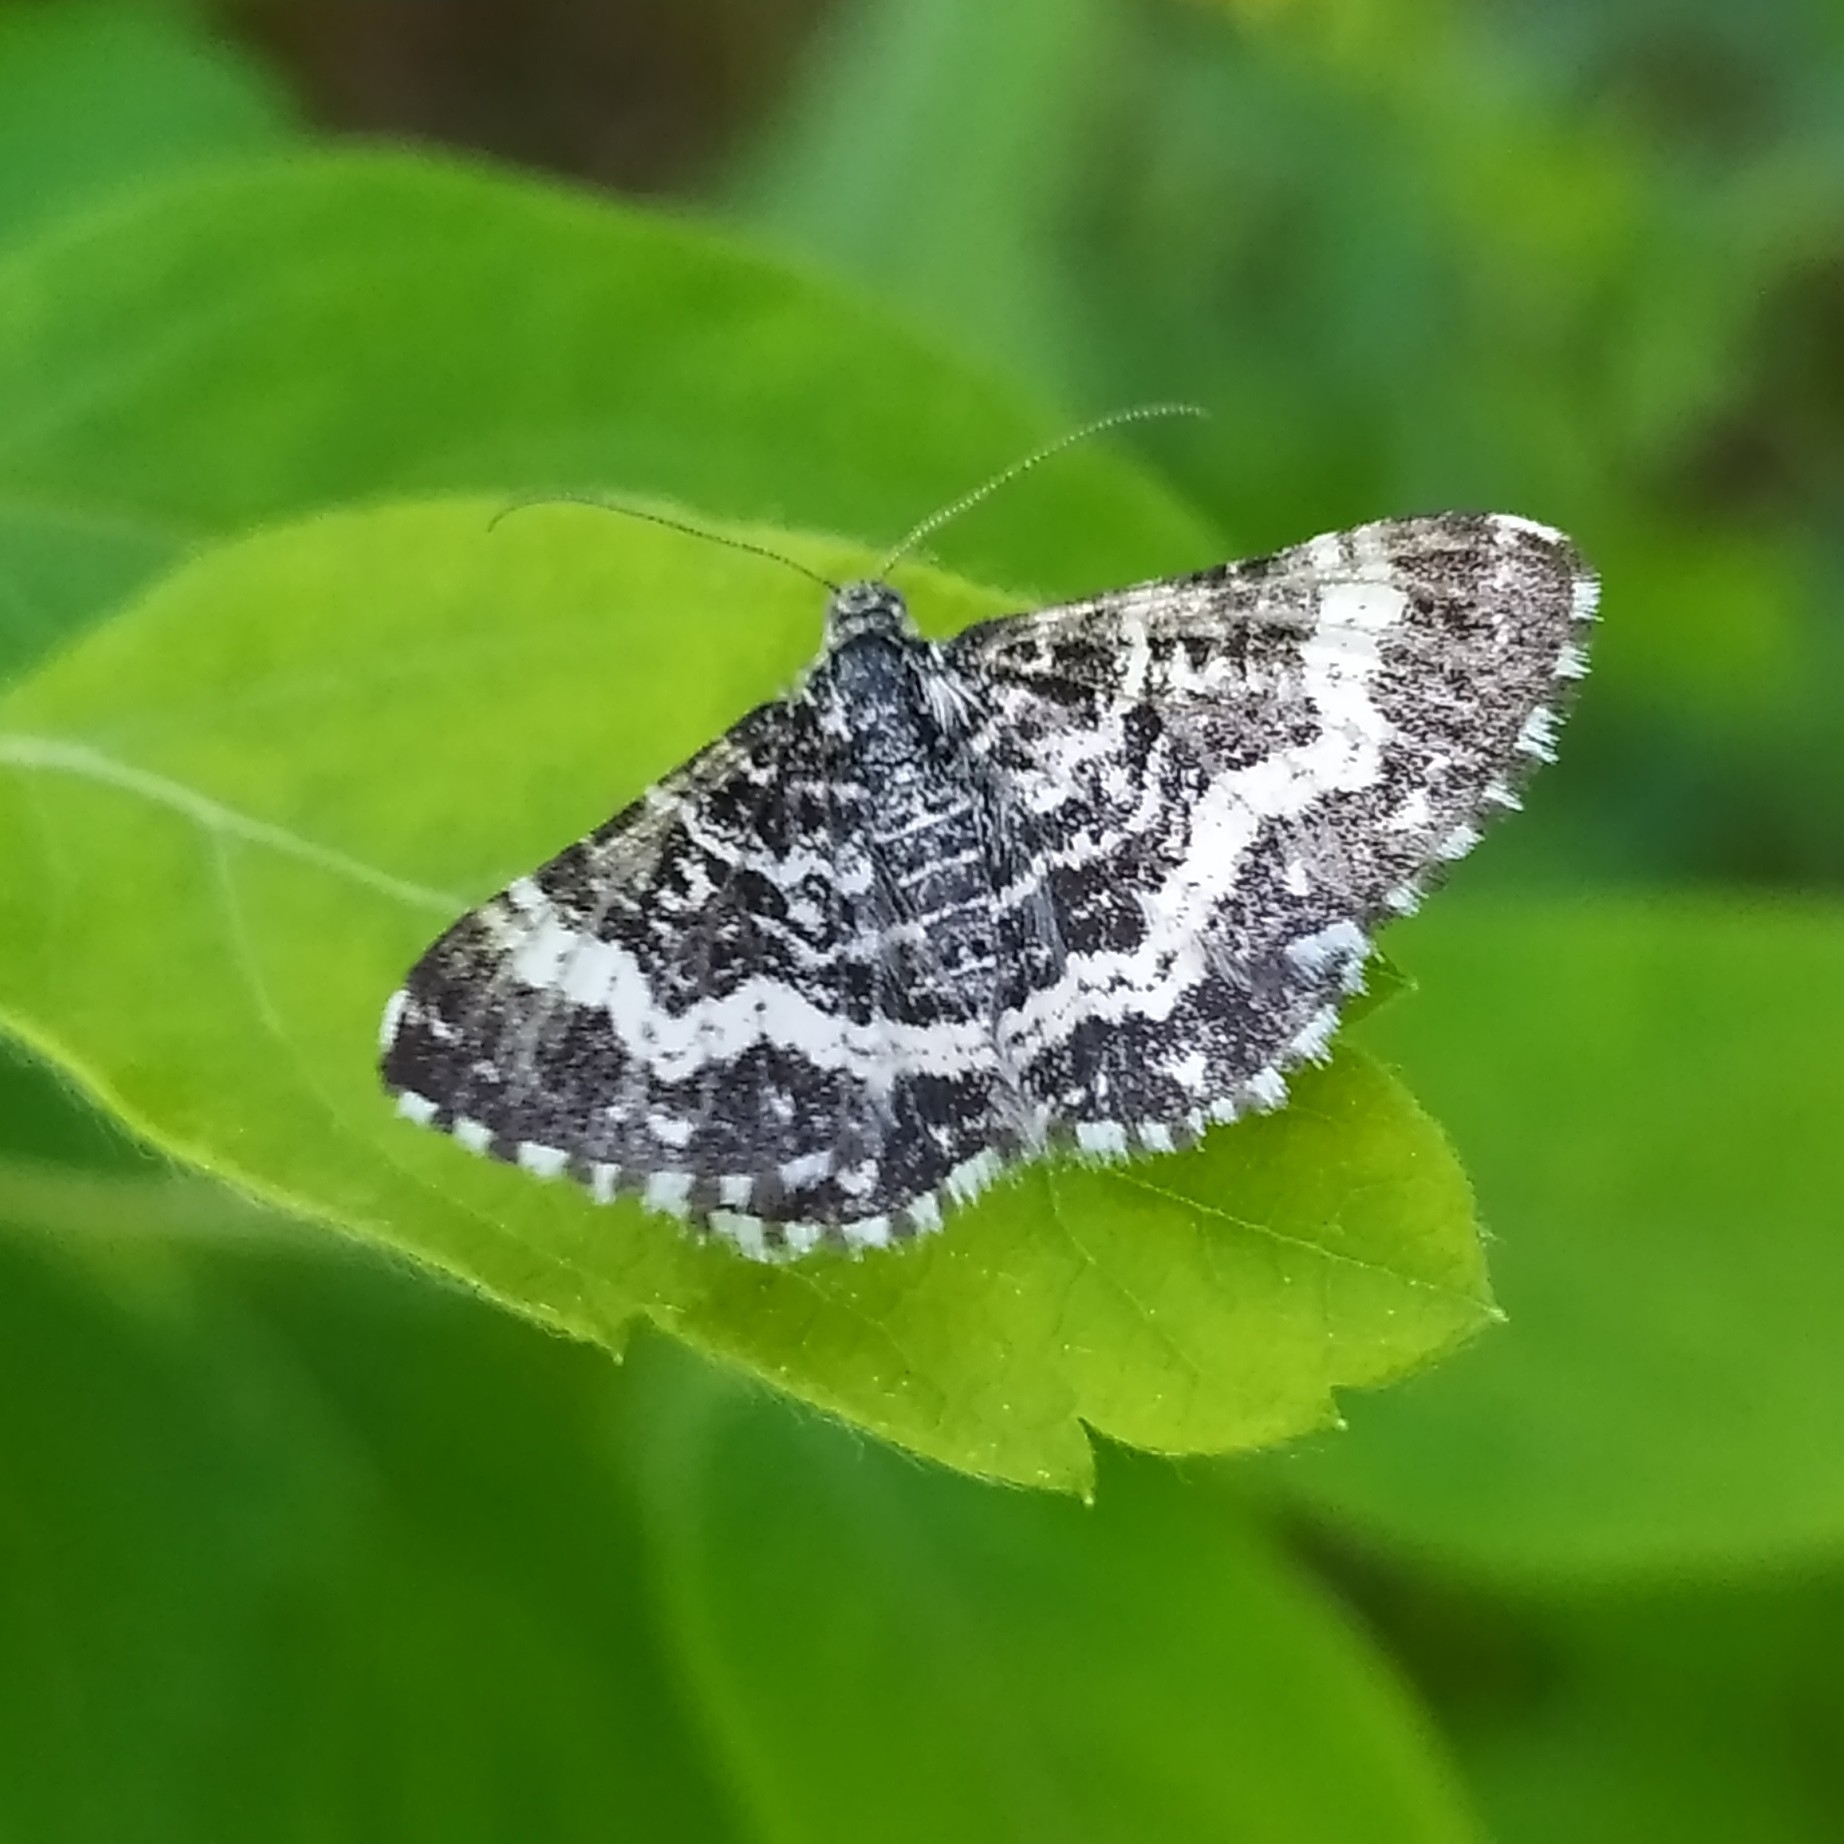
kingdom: Animalia
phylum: Arthropoda
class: Insecta
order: Lepidoptera
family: Geometridae
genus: Epirrhoe
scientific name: Epirrhoe tristata
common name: Small argent & sable
